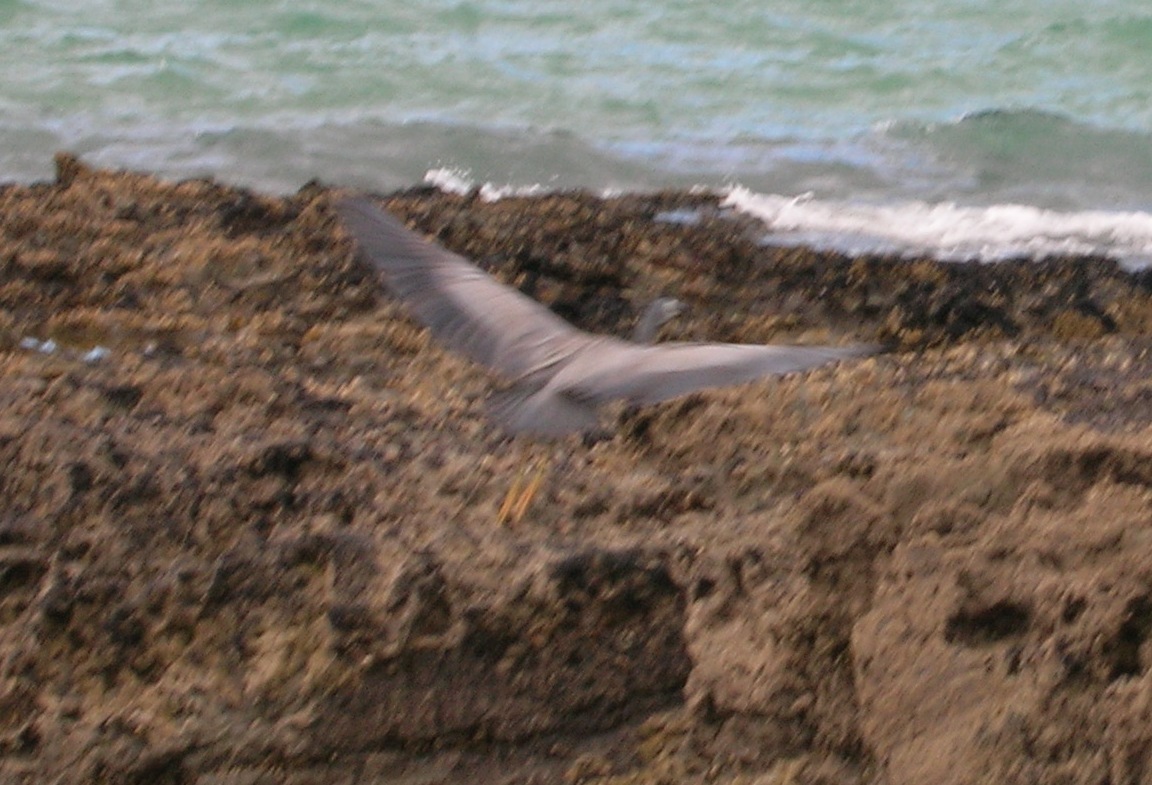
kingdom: Animalia
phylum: Chordata
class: Aves
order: Pelecaniformes
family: Ardeidae
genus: Egretta
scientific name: Egretta novaehollandiae
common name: White-faced heron
